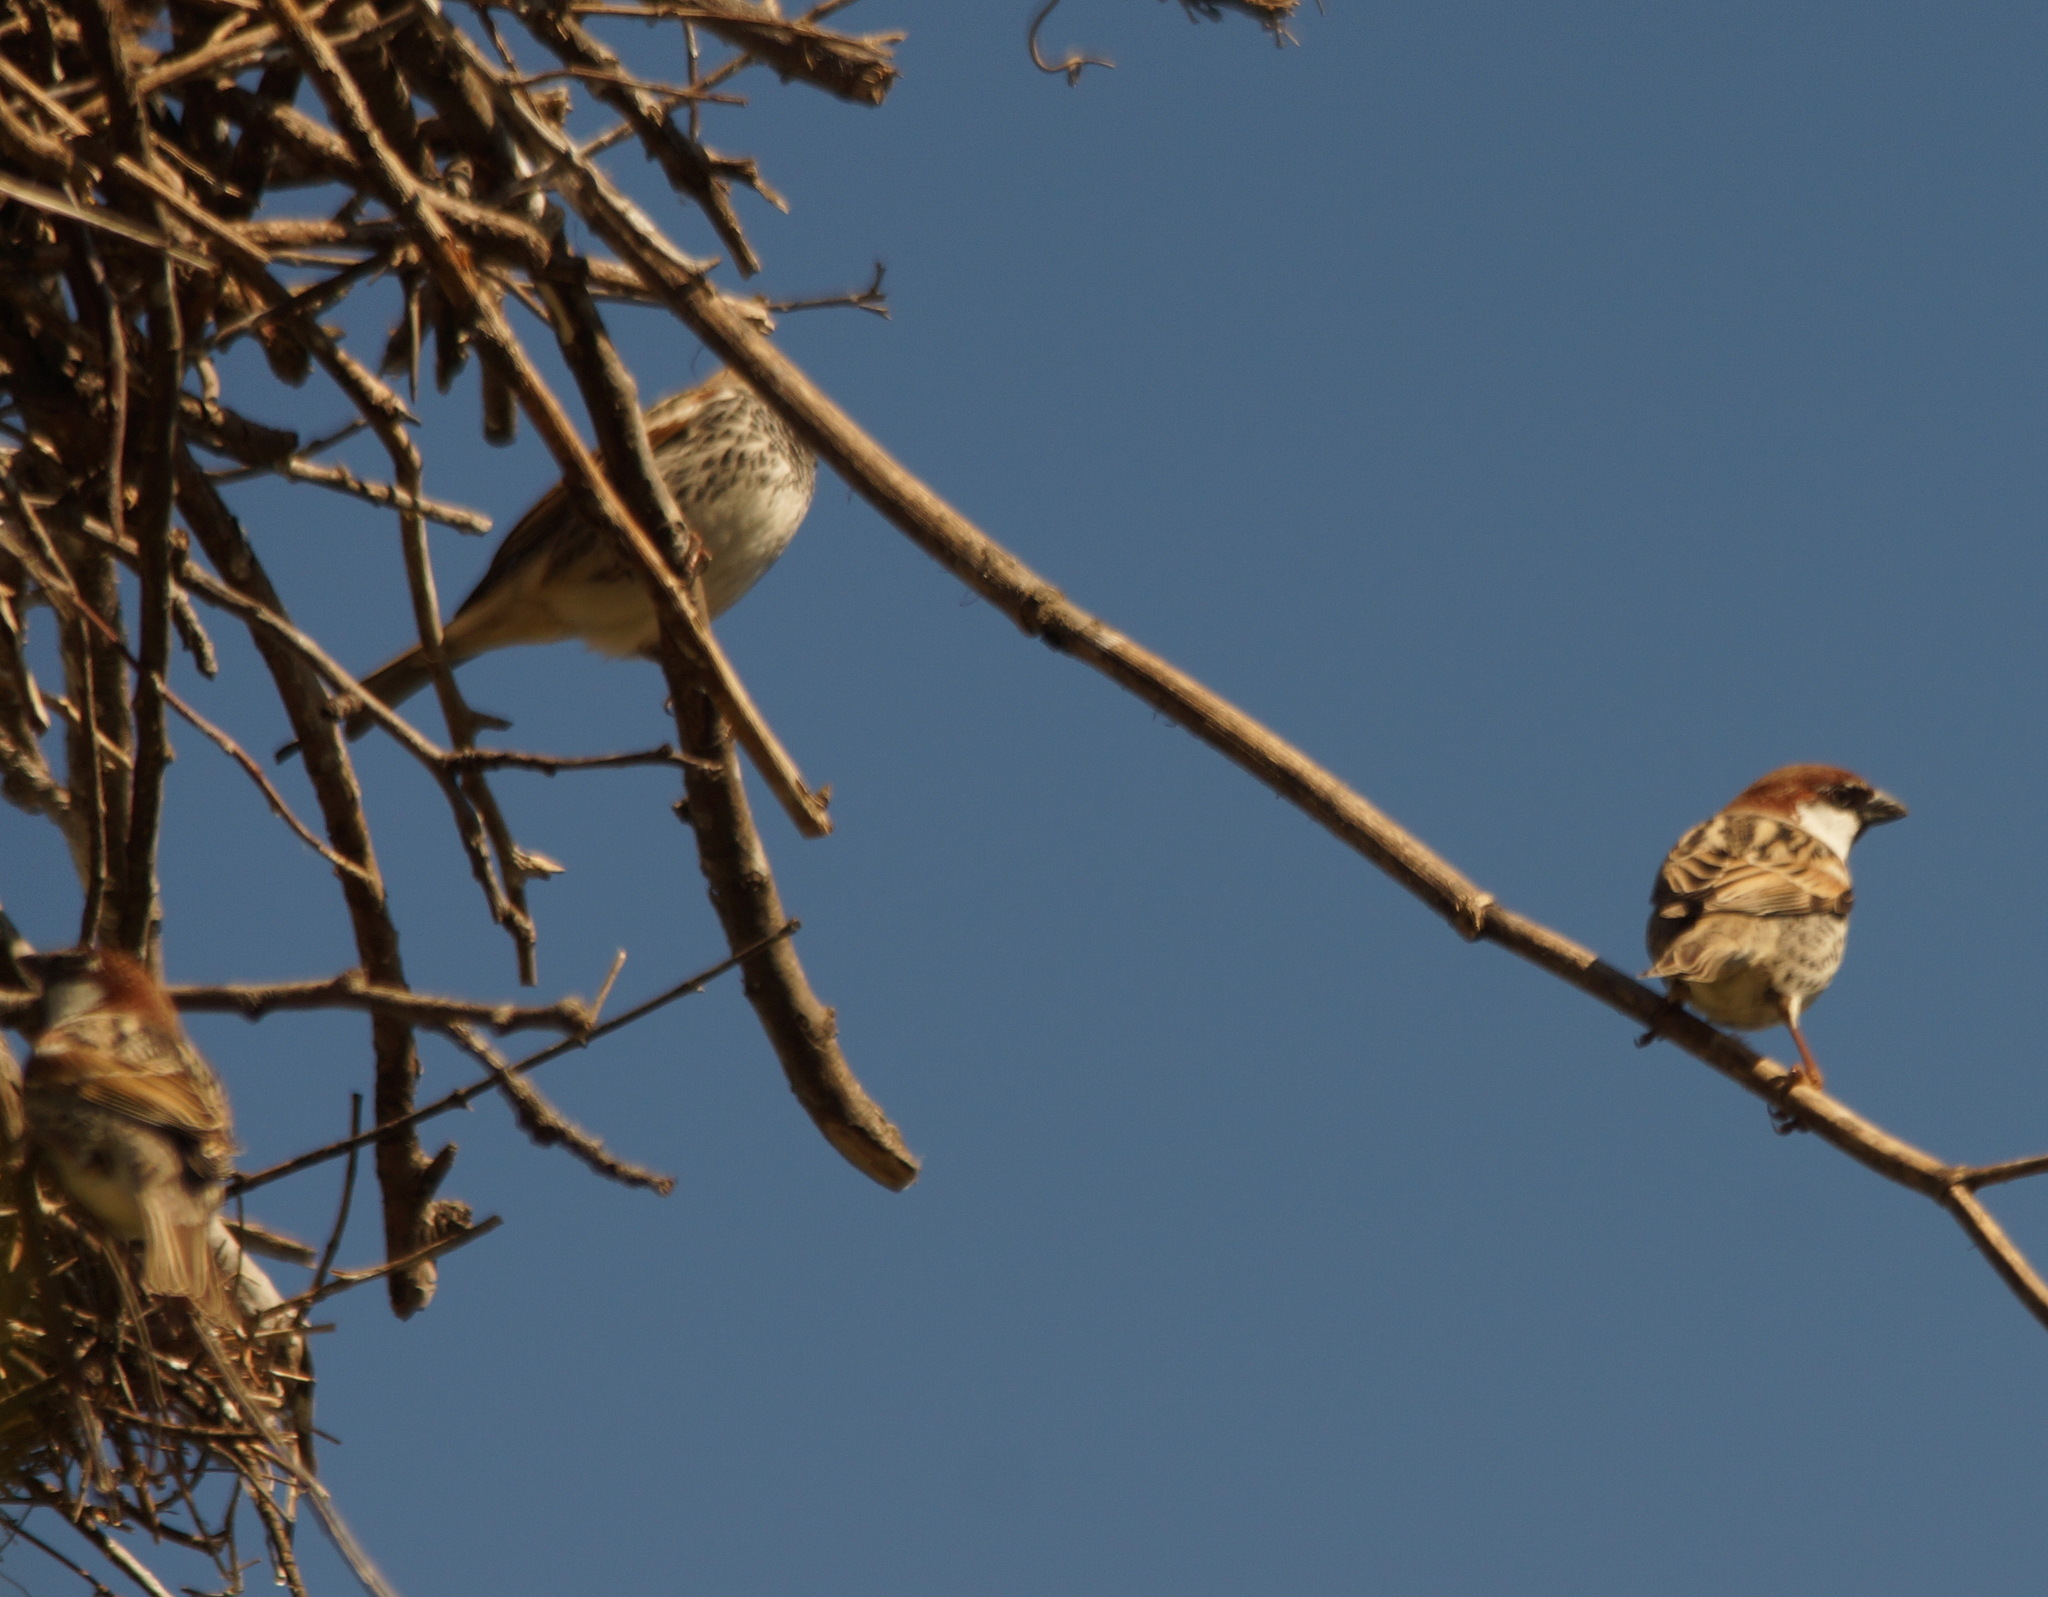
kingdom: Animalia
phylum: Chordata
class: Aves
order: Passeriformes
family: Passeridae
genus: Passer
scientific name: Passer hispaniolensis
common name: Spanish sparrow
